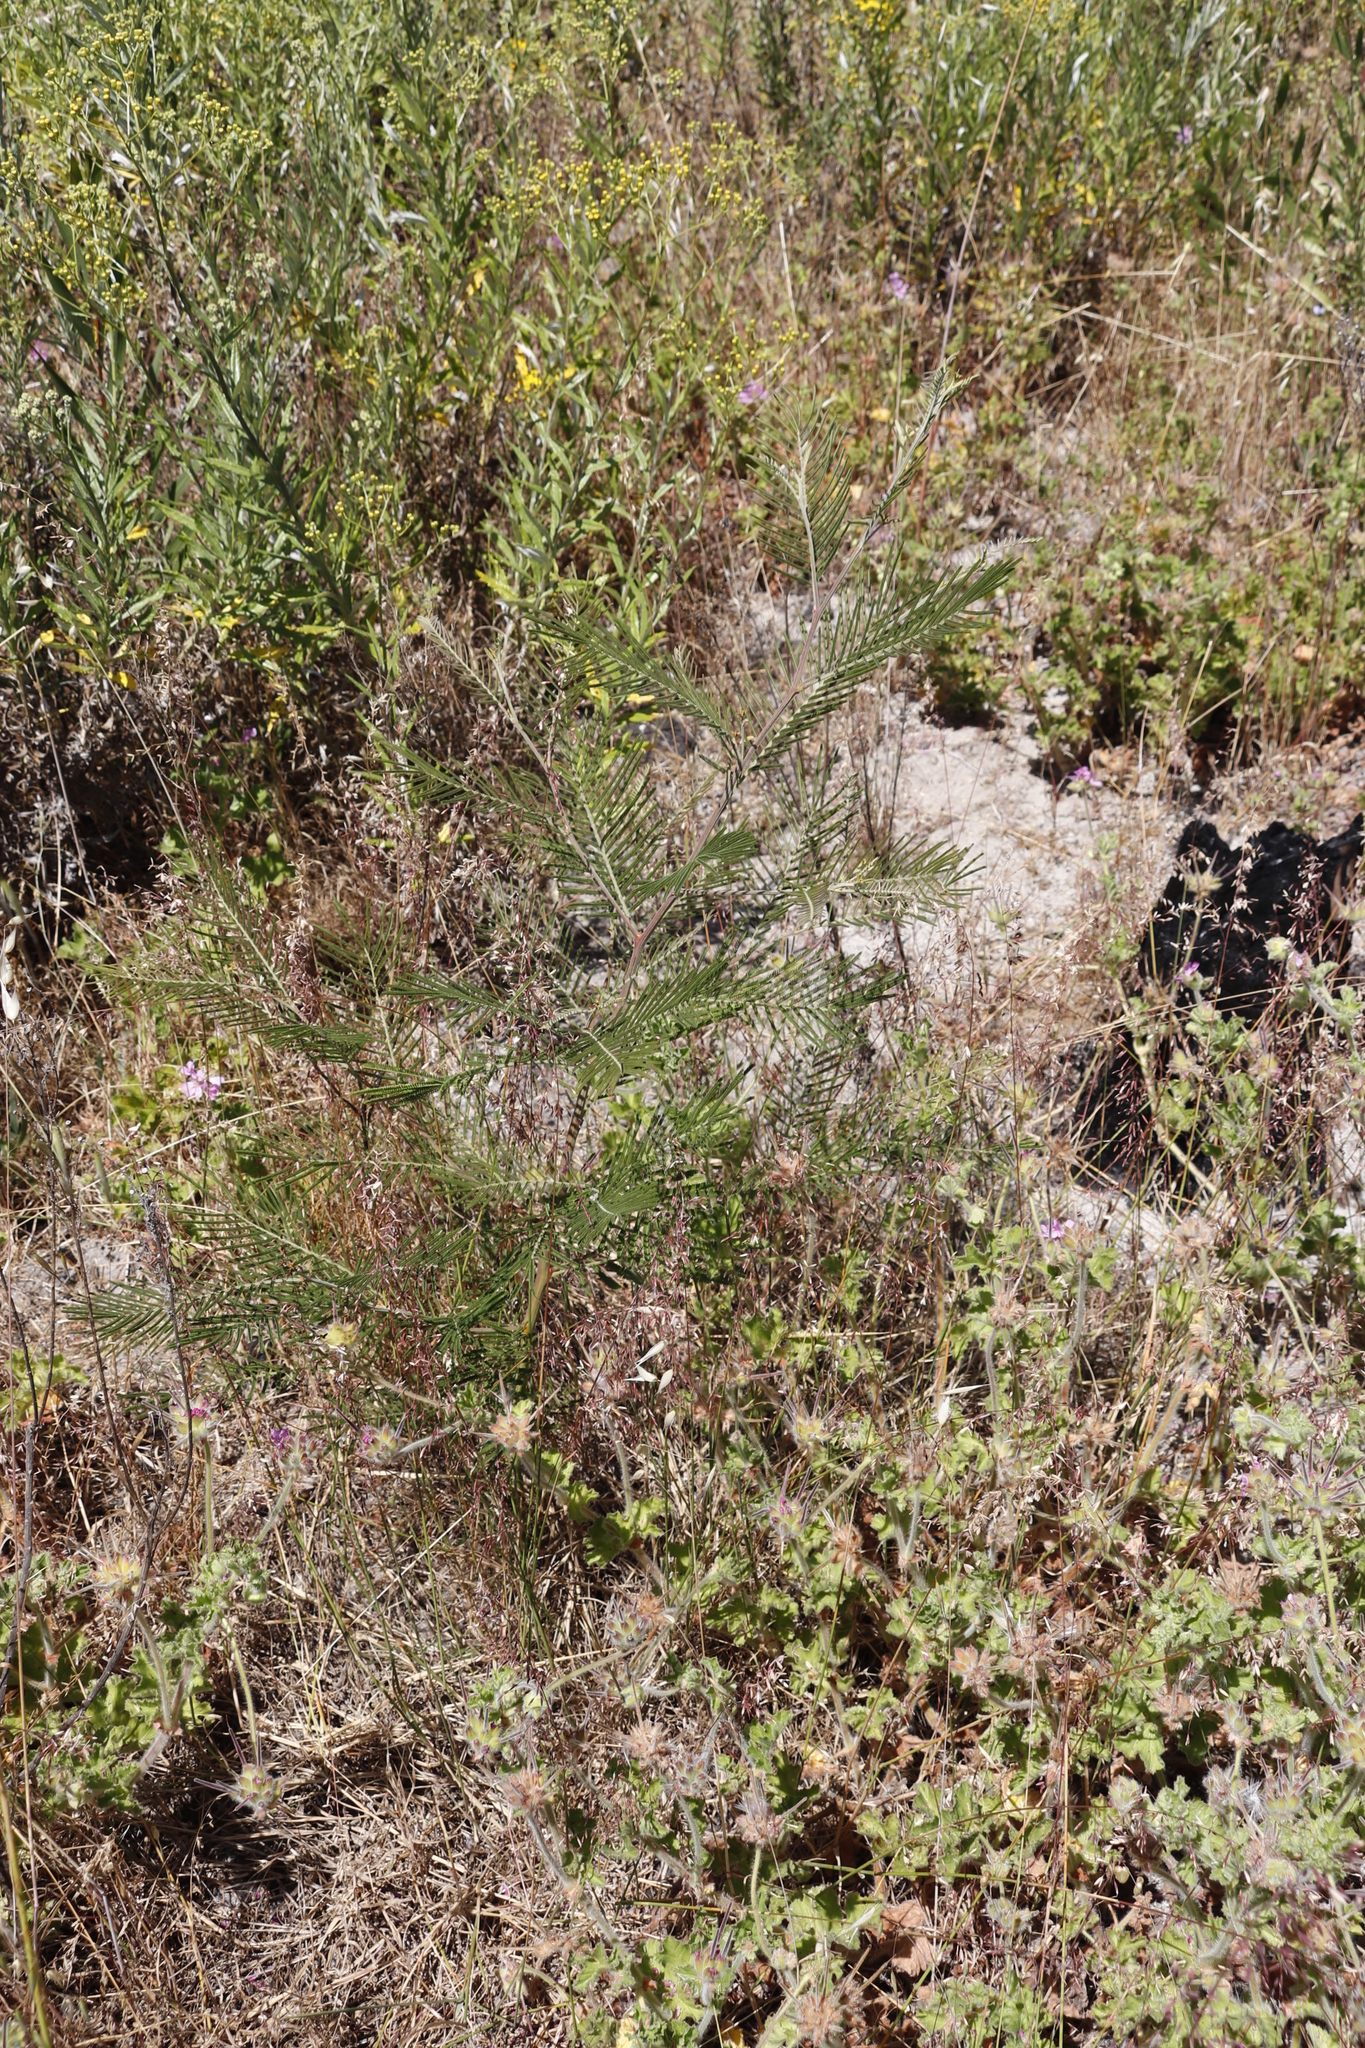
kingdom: Plantae
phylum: Tracheophyta
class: Magnoliopsida
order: Fabales
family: Fabaceae
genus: Acacia
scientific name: Acacia mearnsii
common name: Black wattle
